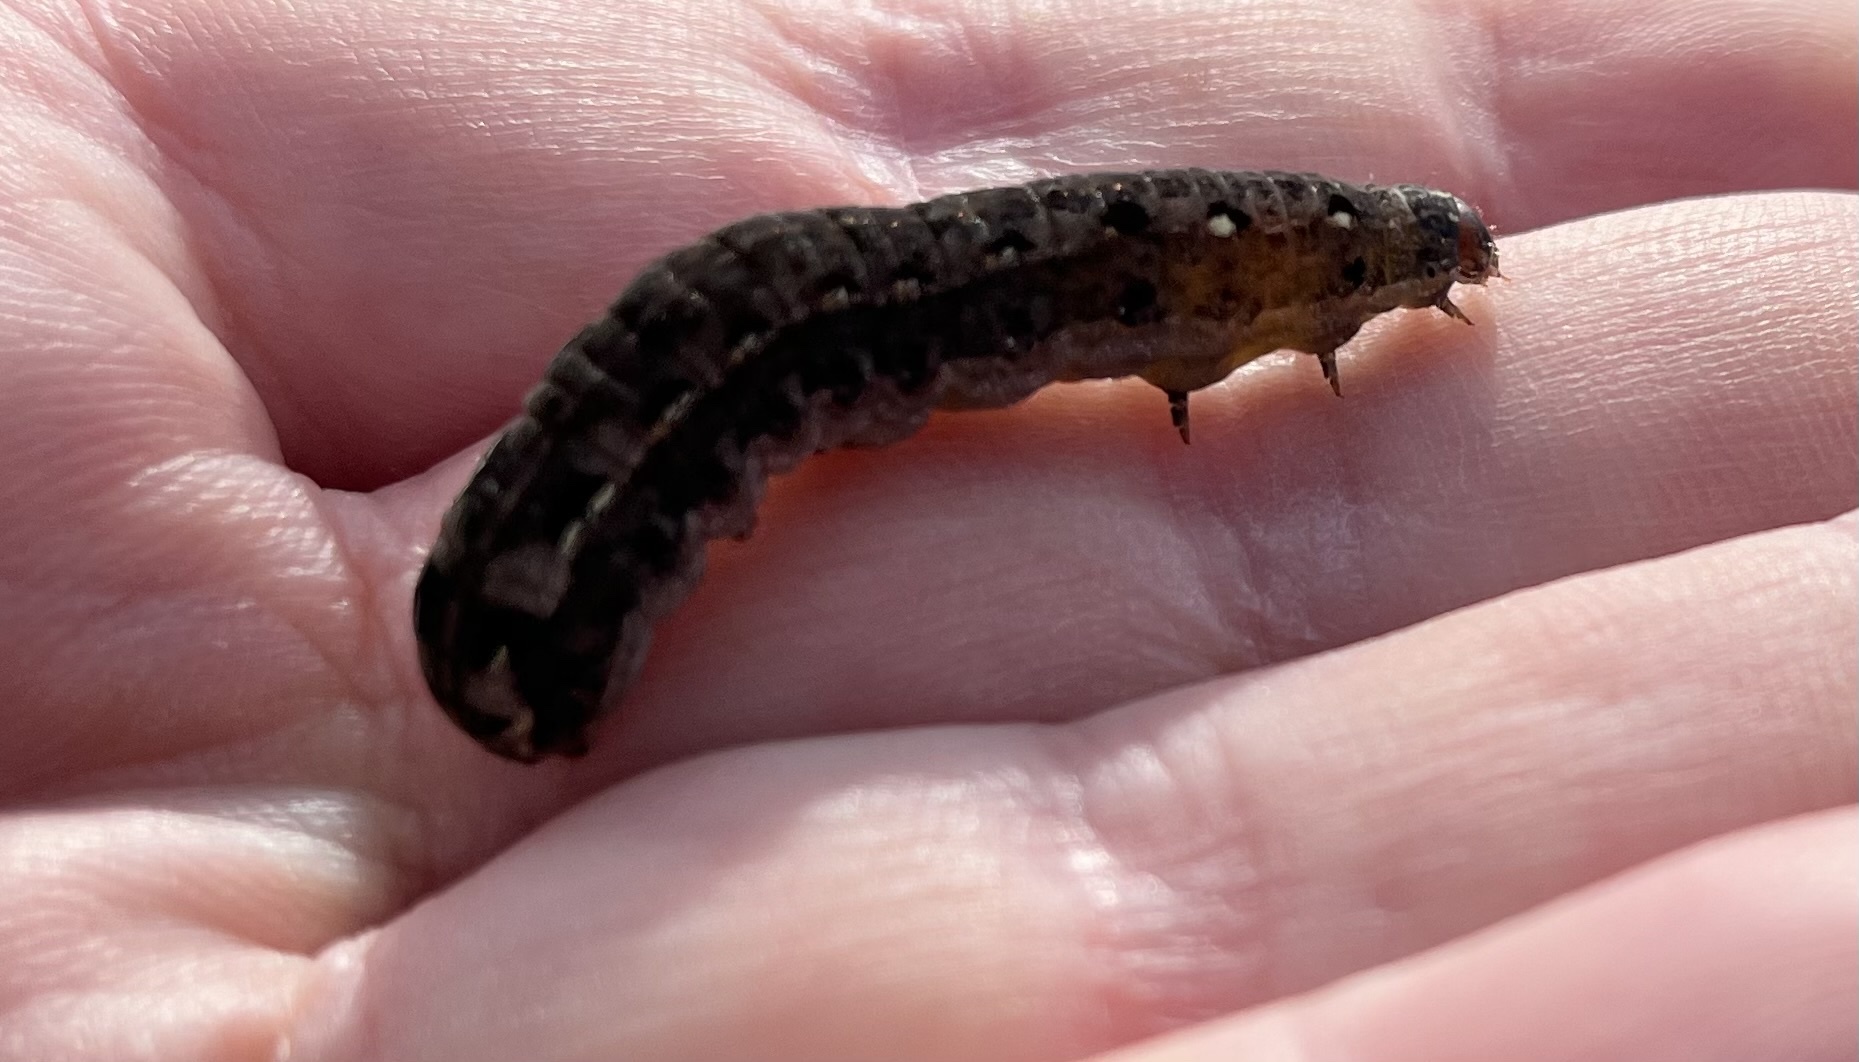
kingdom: Animalia
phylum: Arthropoda
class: Insecta
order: Lepidoptera
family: Noctuidae
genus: Spodoptera
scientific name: Spodoptera litura
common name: Asian cotton leafworm
